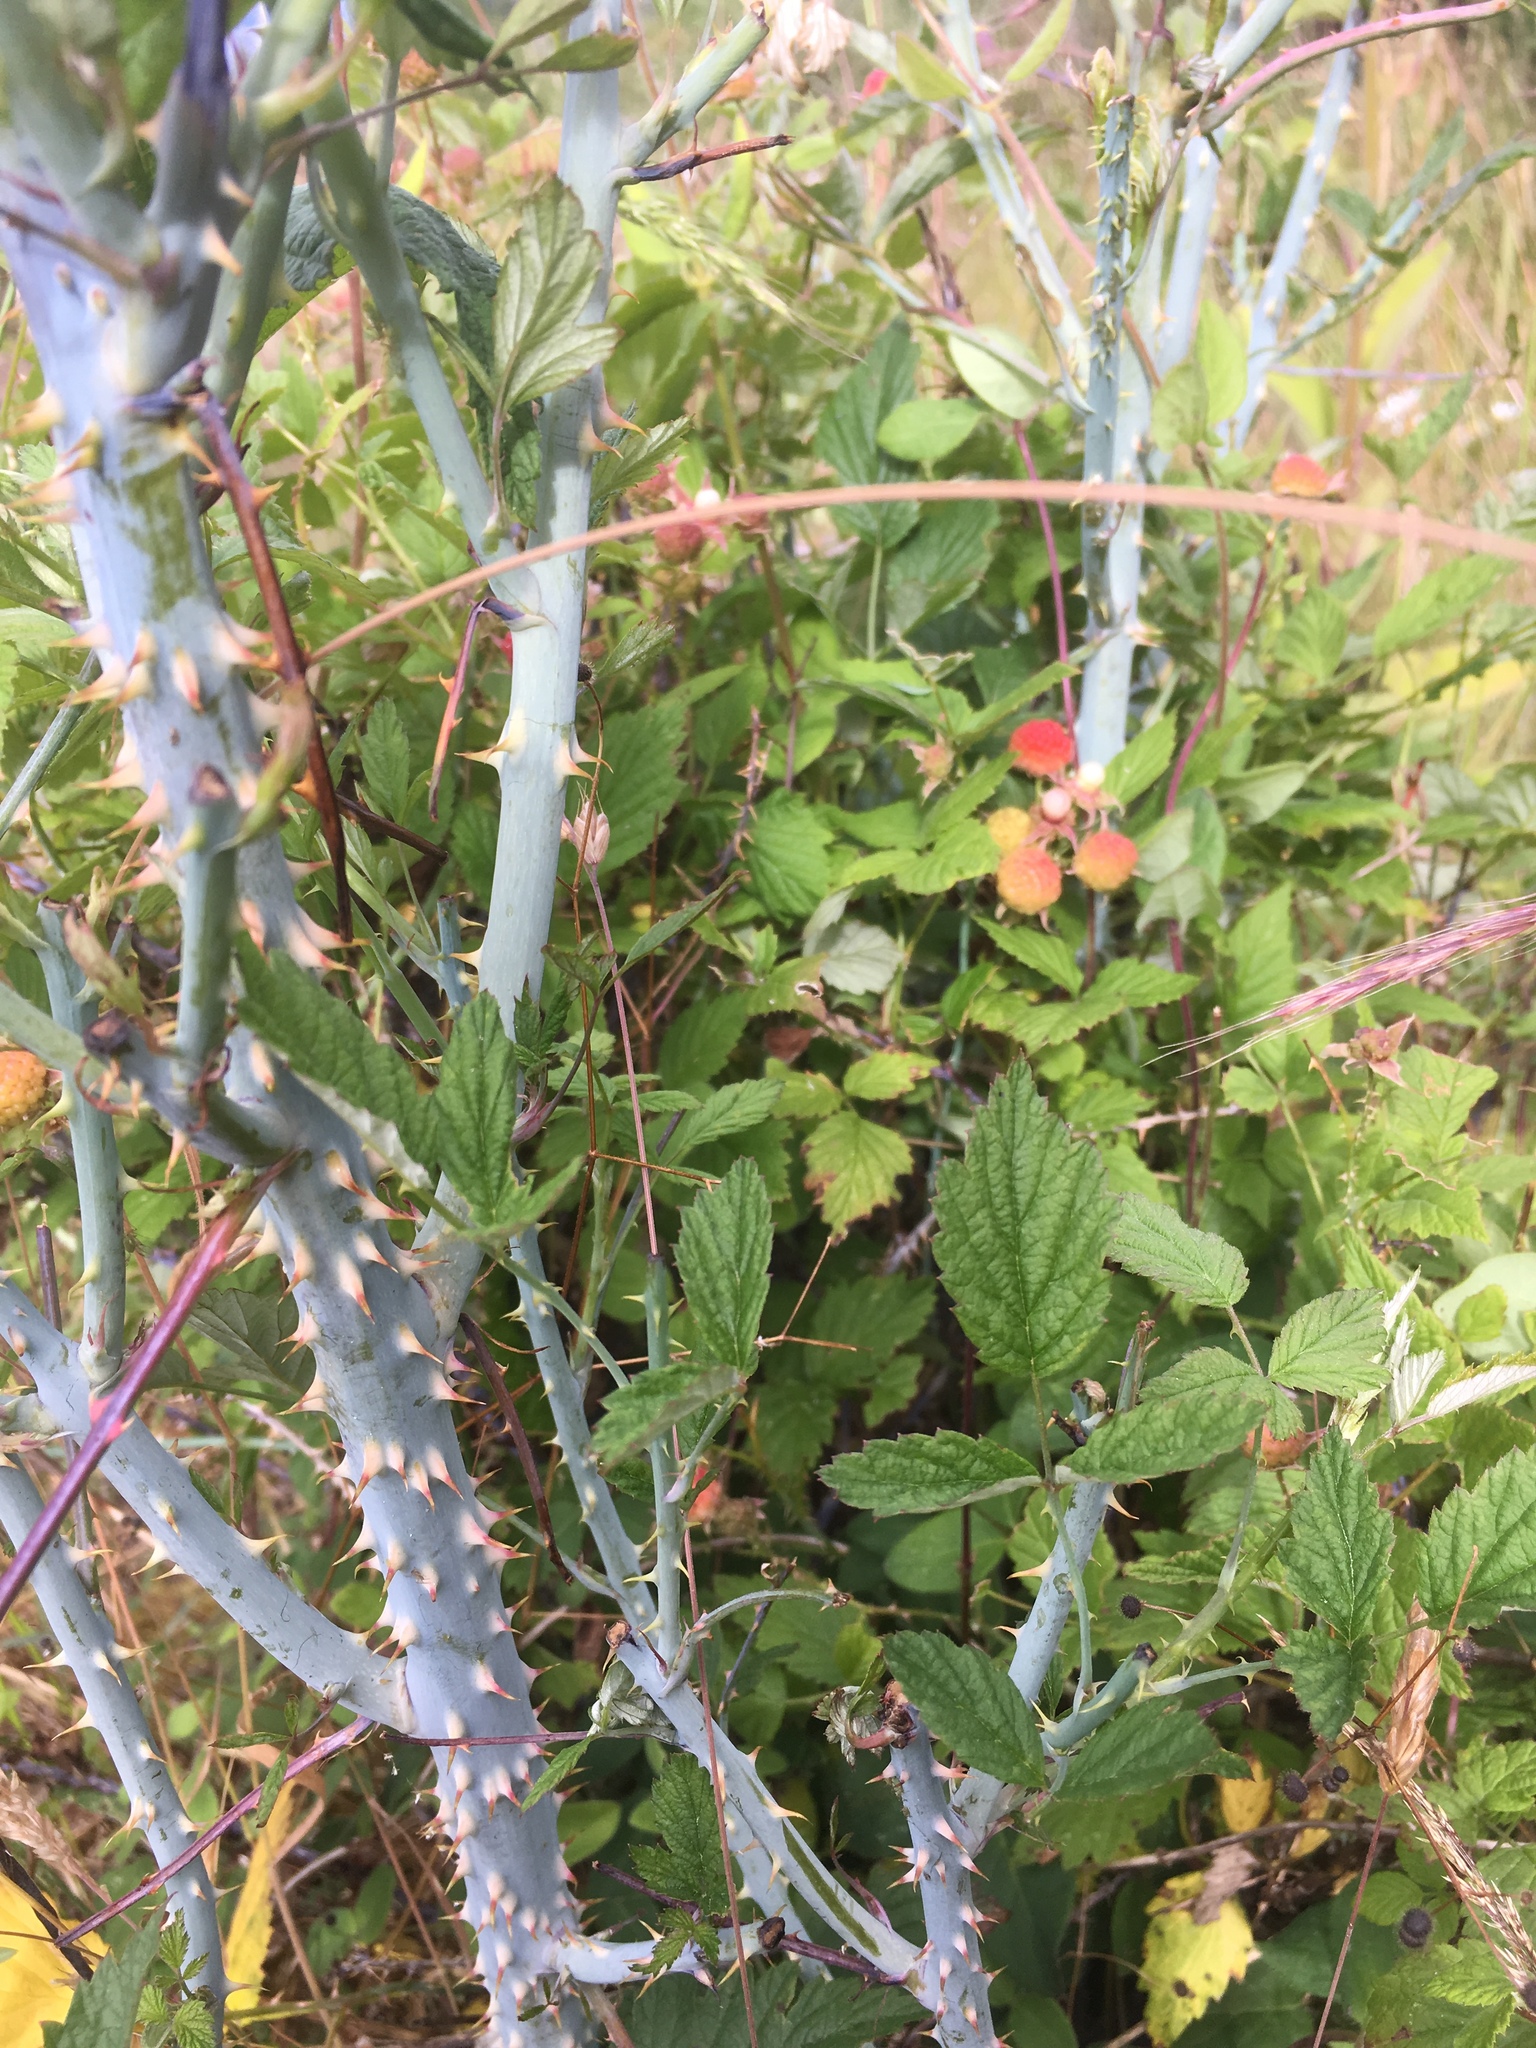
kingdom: Plantae
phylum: Tracheophyta
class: Magnoliopsida
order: Rosales
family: Rosaceae
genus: Rubus
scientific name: Rubus leucodermis
